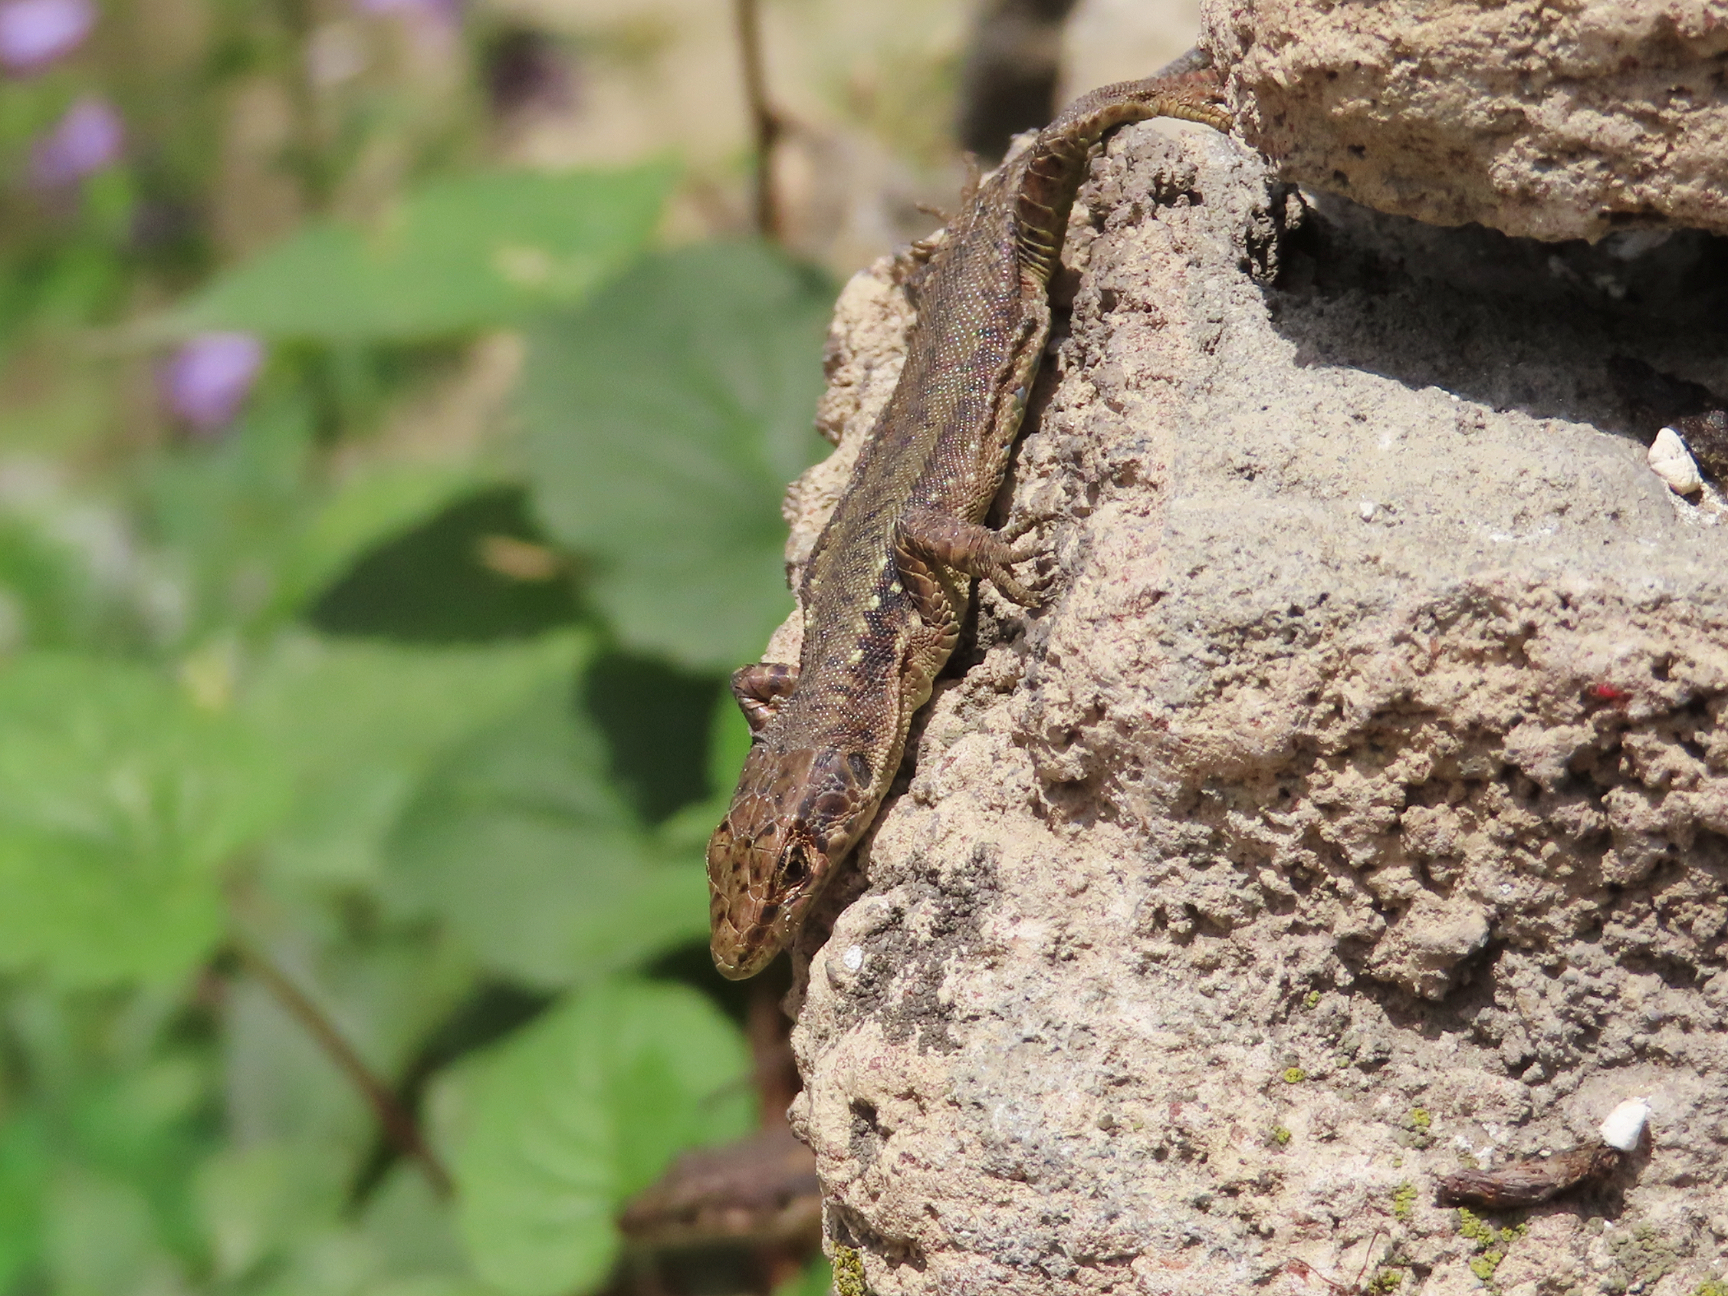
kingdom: Animalia
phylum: Chordata
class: Squamata
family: Lacertidae
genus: Darevskia
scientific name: Darevskia armeniaca
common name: Armenian lizard
